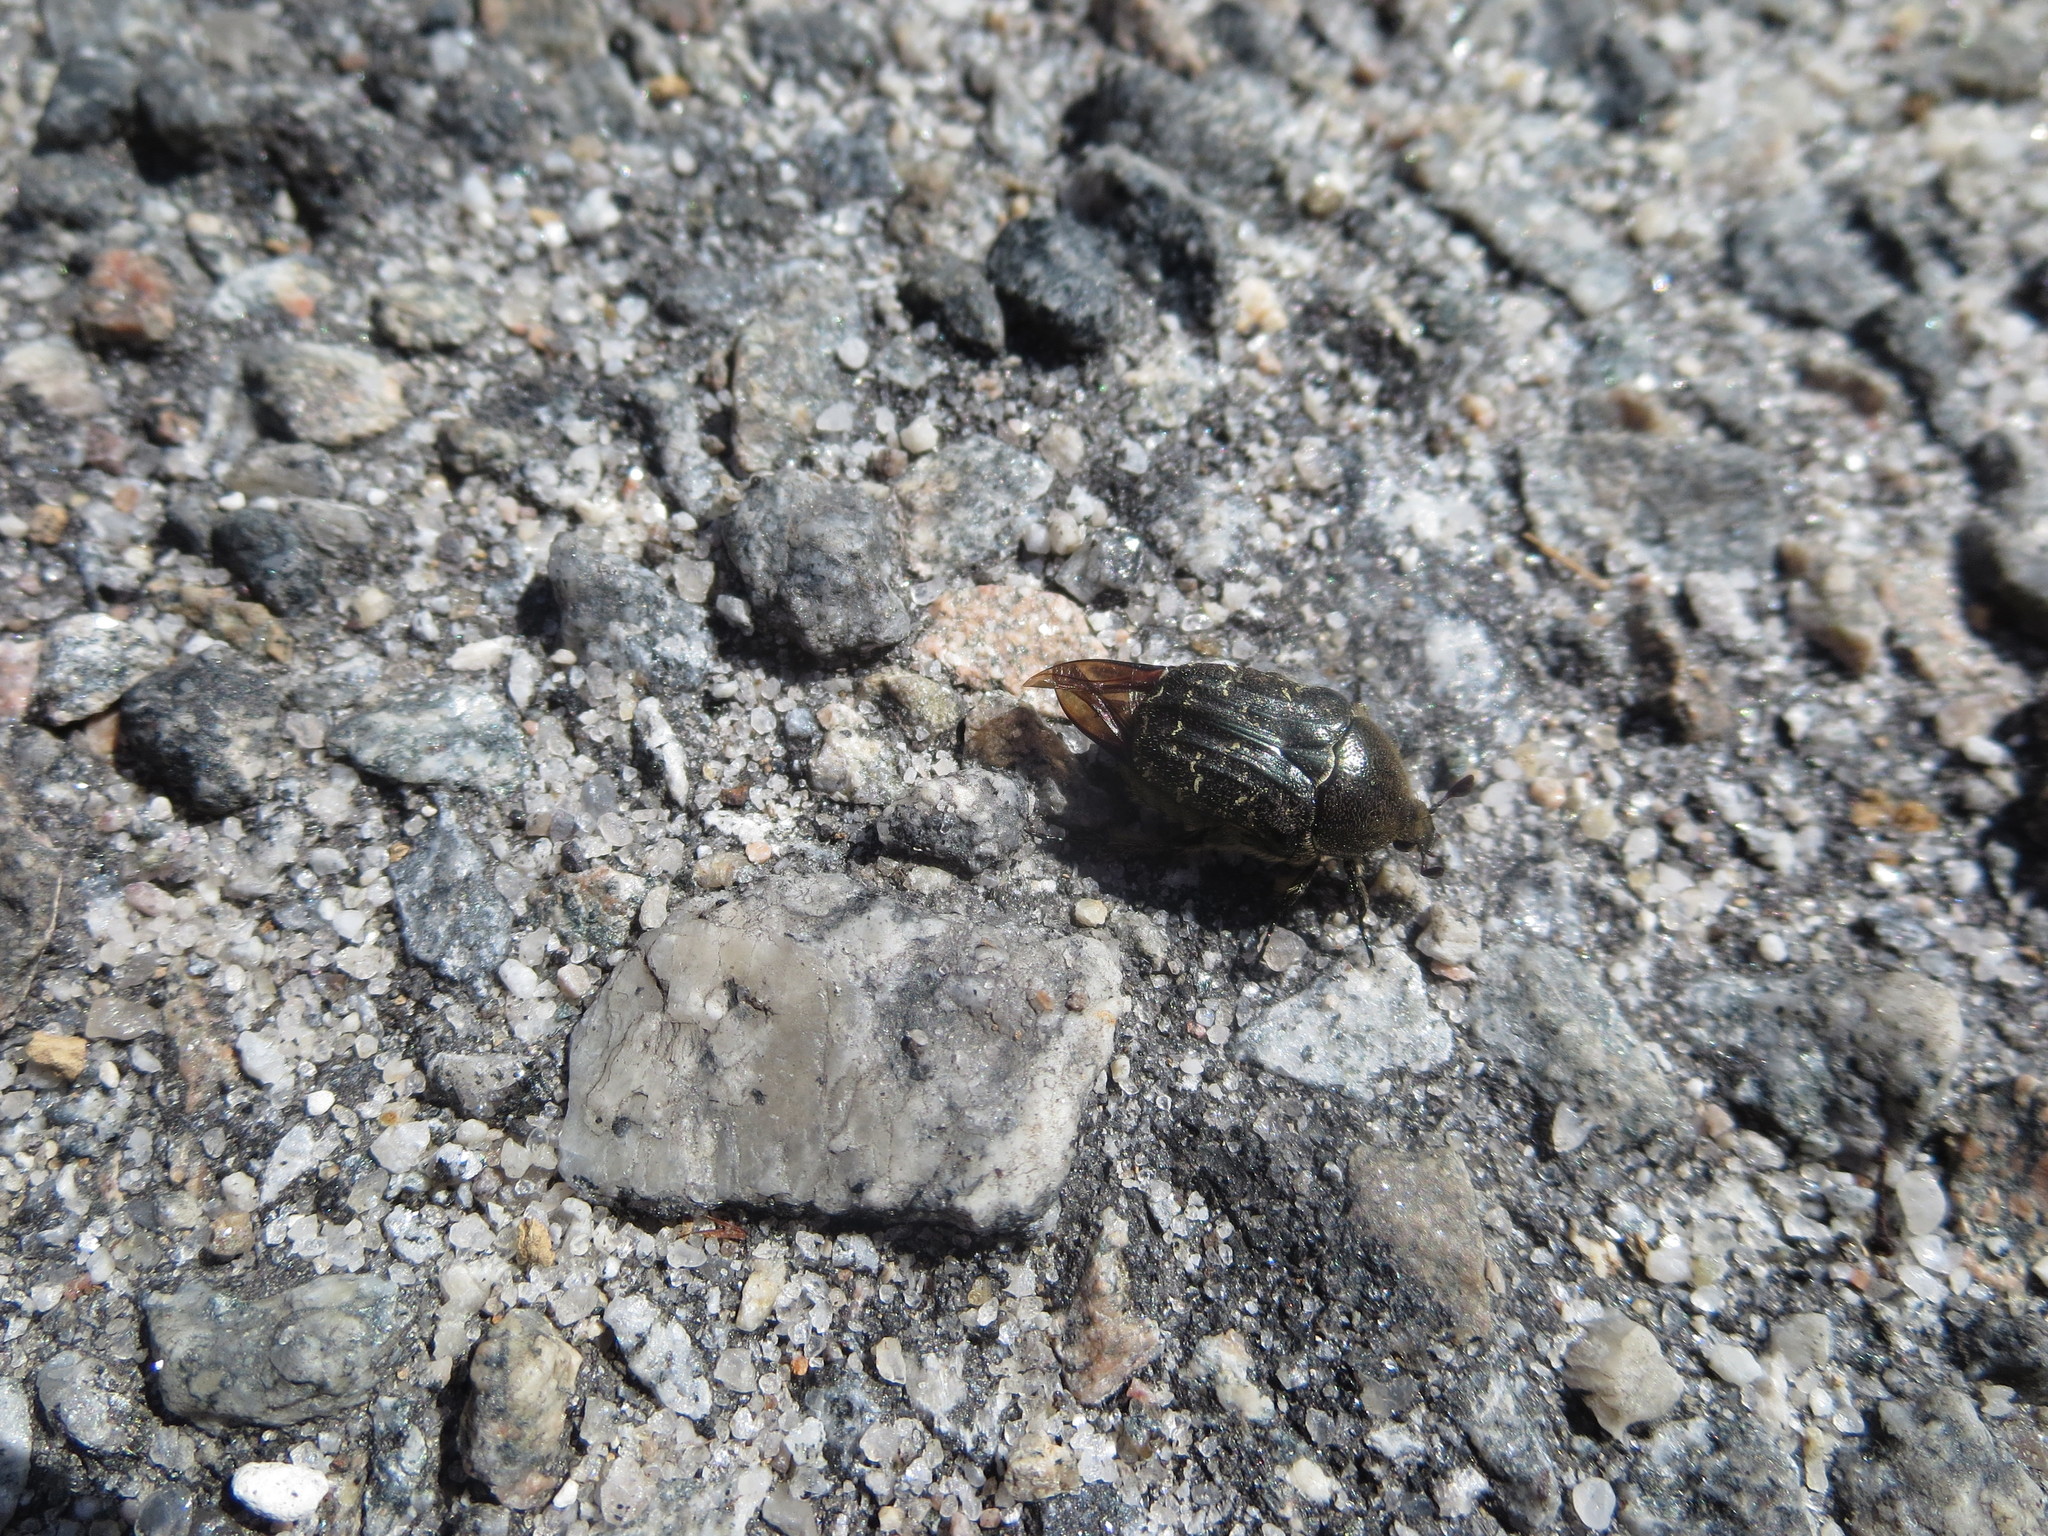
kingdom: Animalia
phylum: Arthropoda
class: Insecta
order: Coleoptera
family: Scarabaeidae
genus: Euphoria
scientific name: Euphoria sepulcralis
